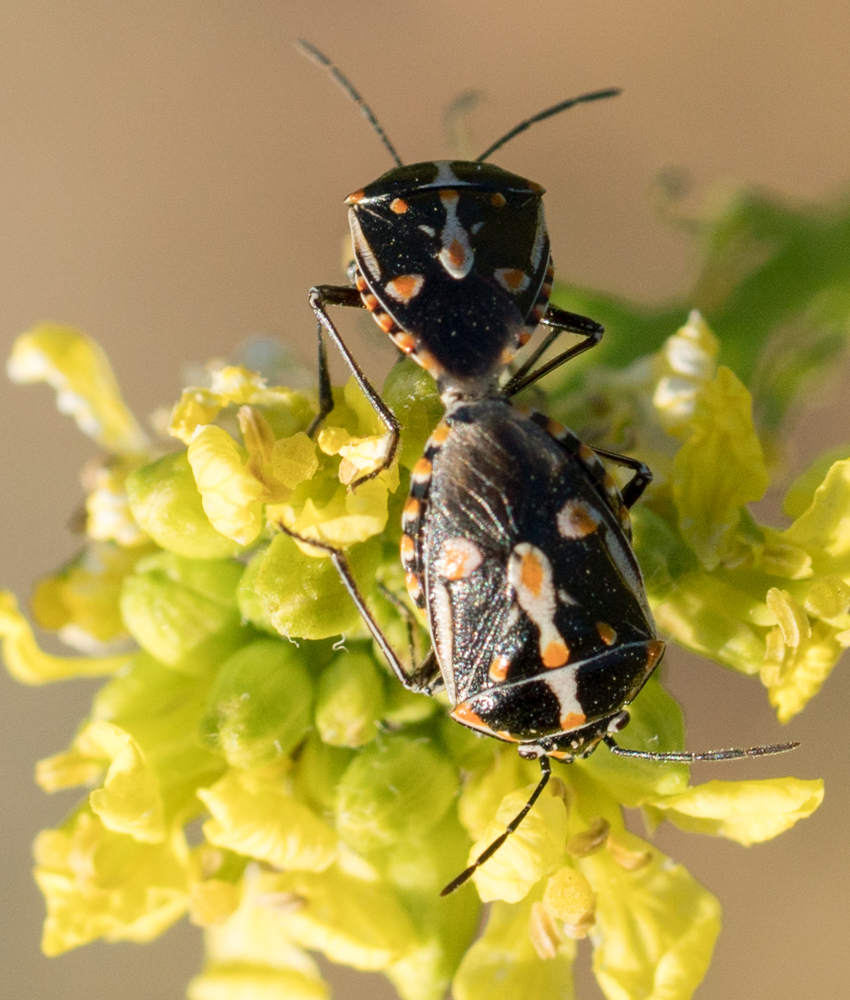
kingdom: Animalia
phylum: Arthropoda
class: Insecta
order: Hemiptera
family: Pentatomidae
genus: Bagrada
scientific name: Bagrada hilaris
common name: Bagrada bug
